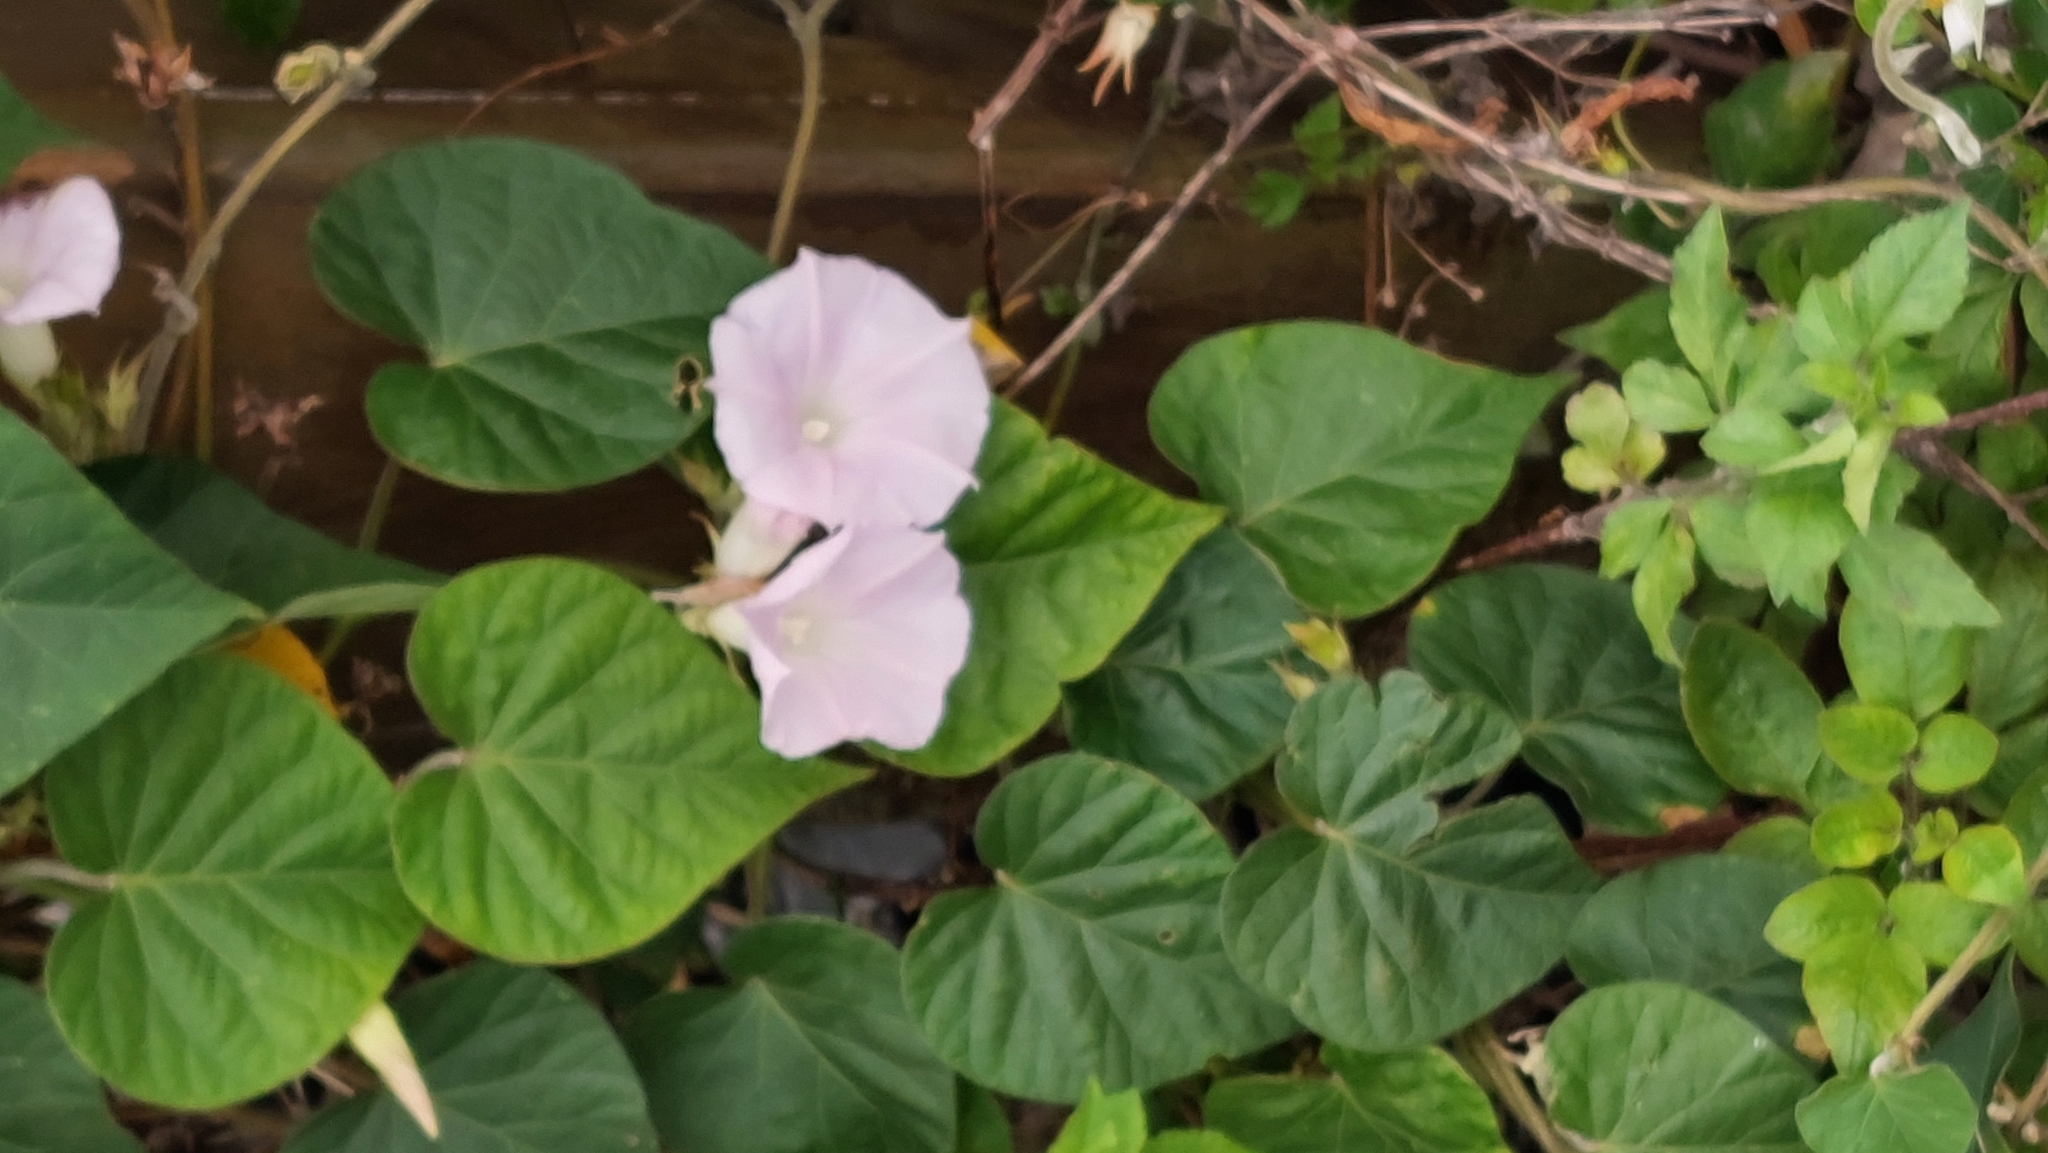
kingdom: Plantae
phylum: Tracheophyta
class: Magnoliopsida
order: Solanales
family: Convolvulaceae
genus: Ipomoea
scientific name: Ipomoea indica
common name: Blue dawnflower
